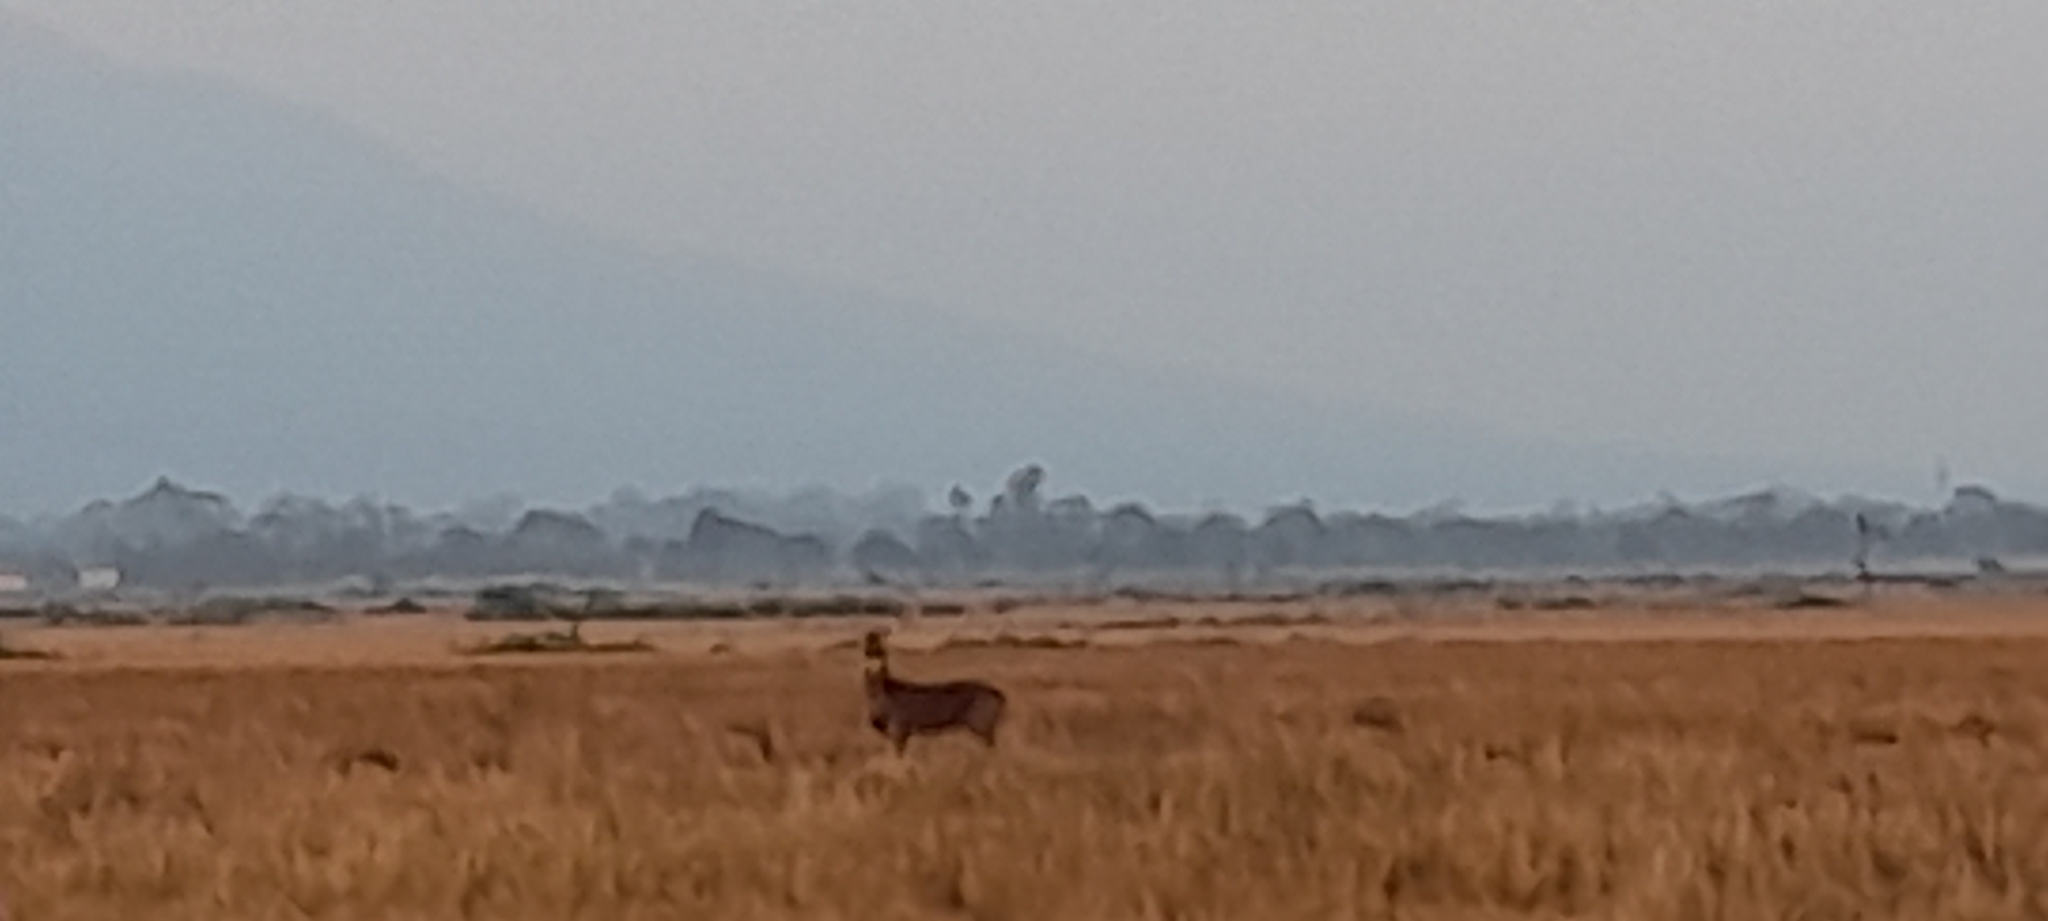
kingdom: Animalia
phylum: Chordata
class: Mammalia
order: Artiodactyla
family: Cervidae
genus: Rusa
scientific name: Rusa unicolor
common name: Sambar
